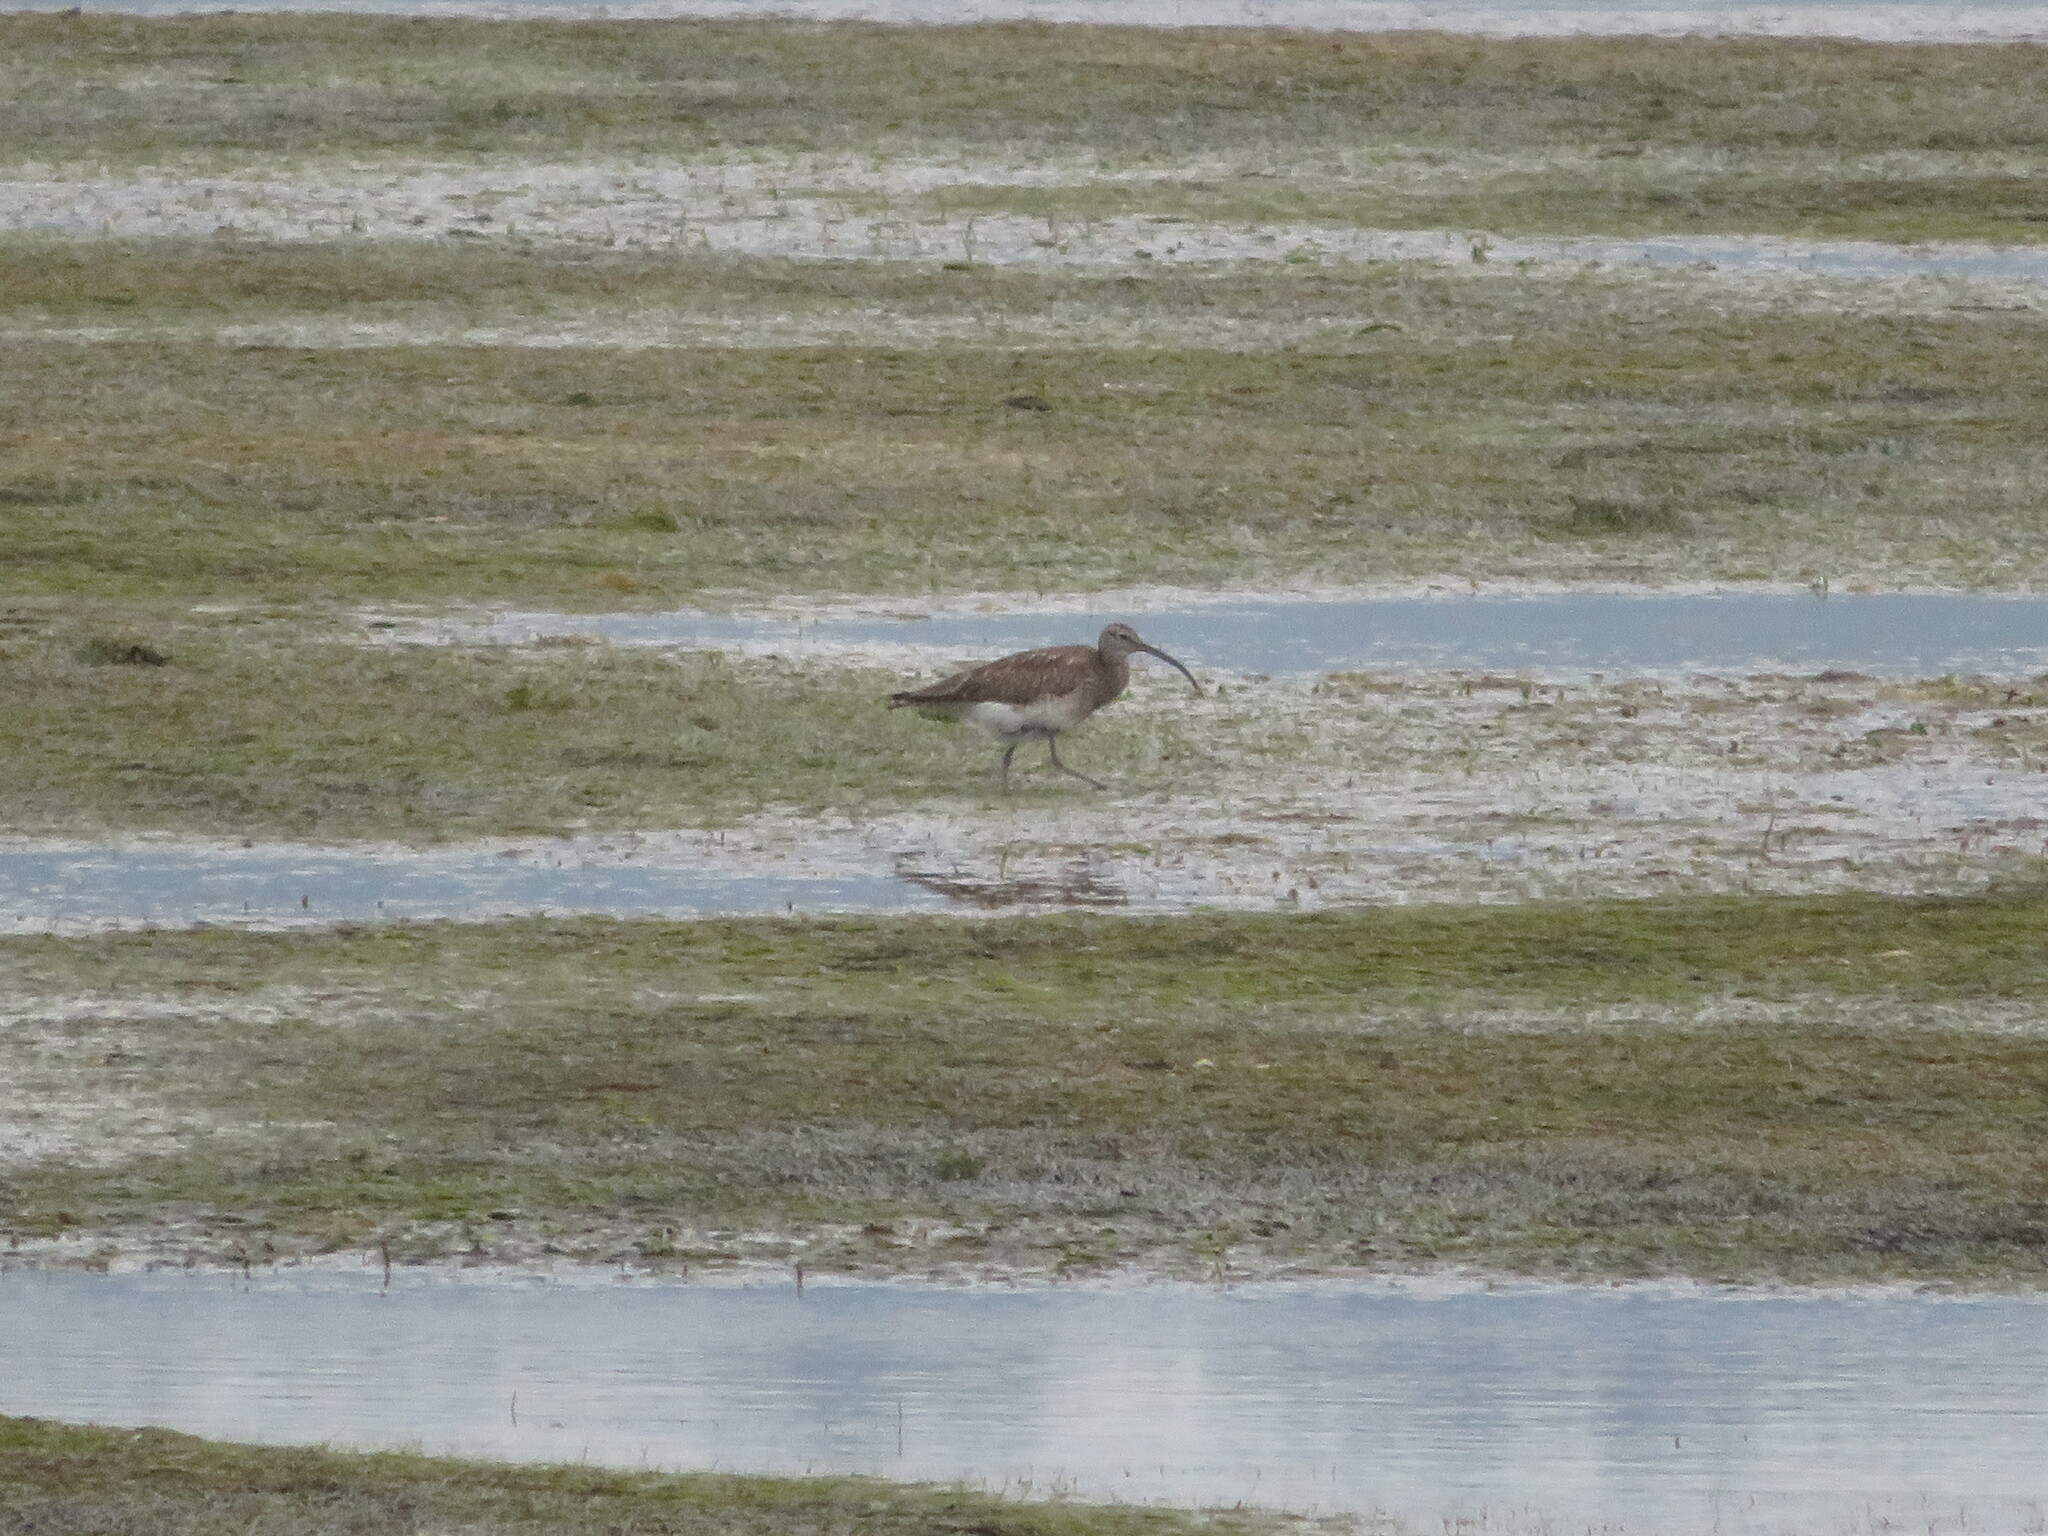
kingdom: Animalia
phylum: Chordata
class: Aves
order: Charadriiformes
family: Scolopacidae
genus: Numenius
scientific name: Numenius phaeopus
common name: Whimbrel
